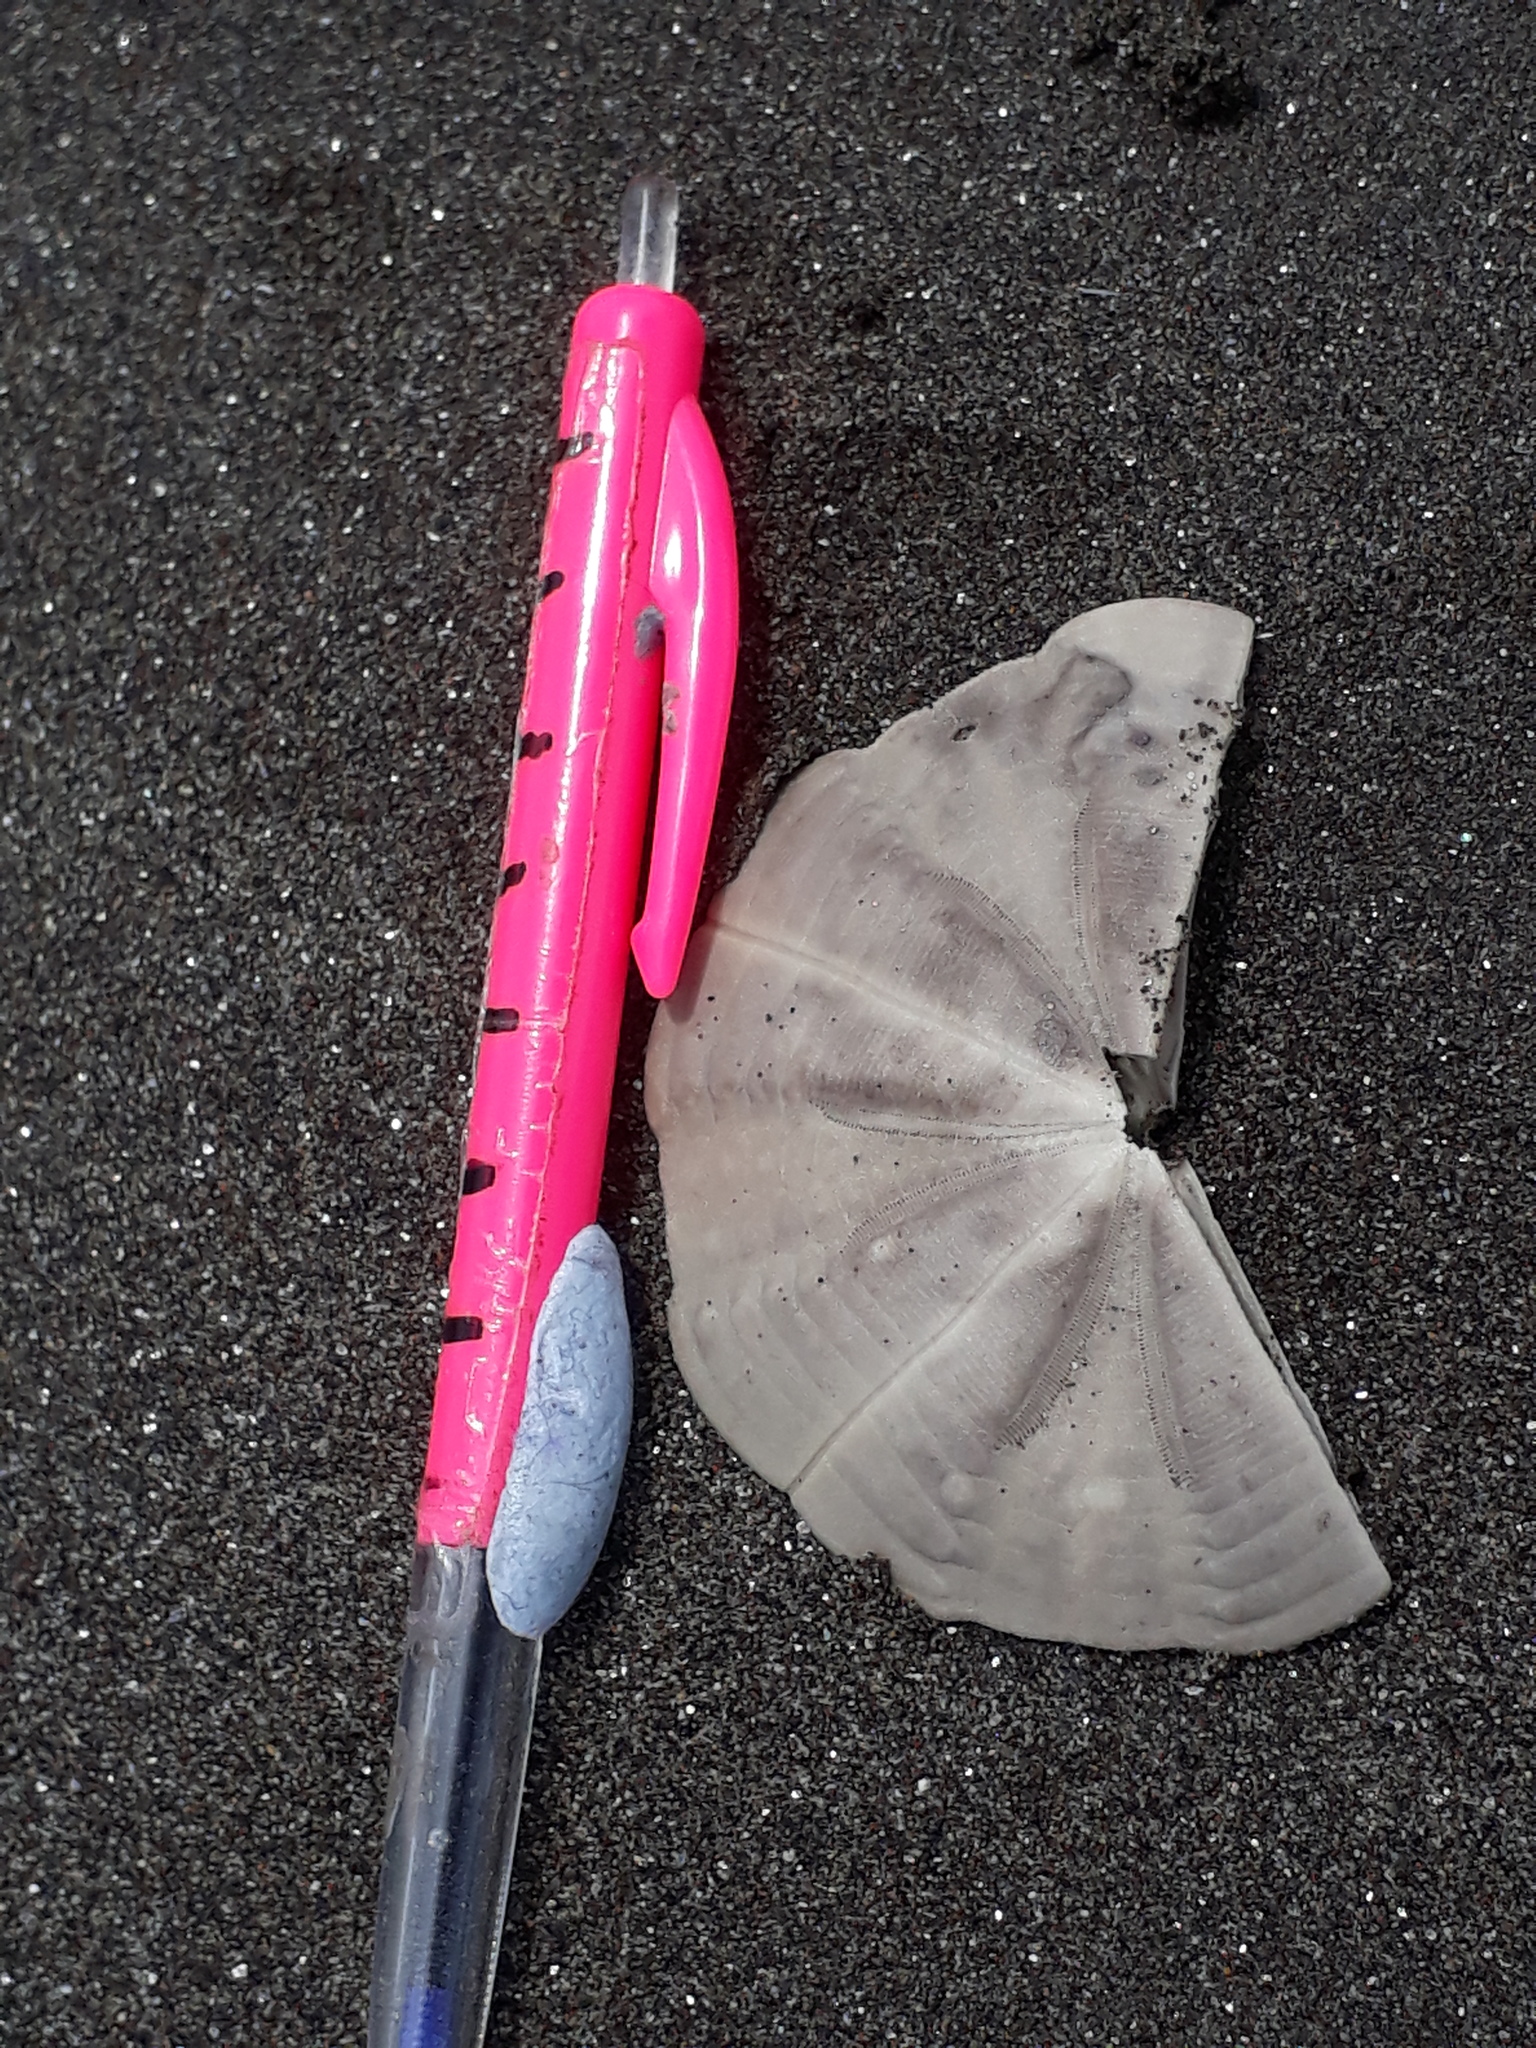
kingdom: Animalia
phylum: Echinodermata
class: Echinoidea
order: Clypeasteroida
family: Clypeasteridae
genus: Fellaster
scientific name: Fellaster zelandiae
